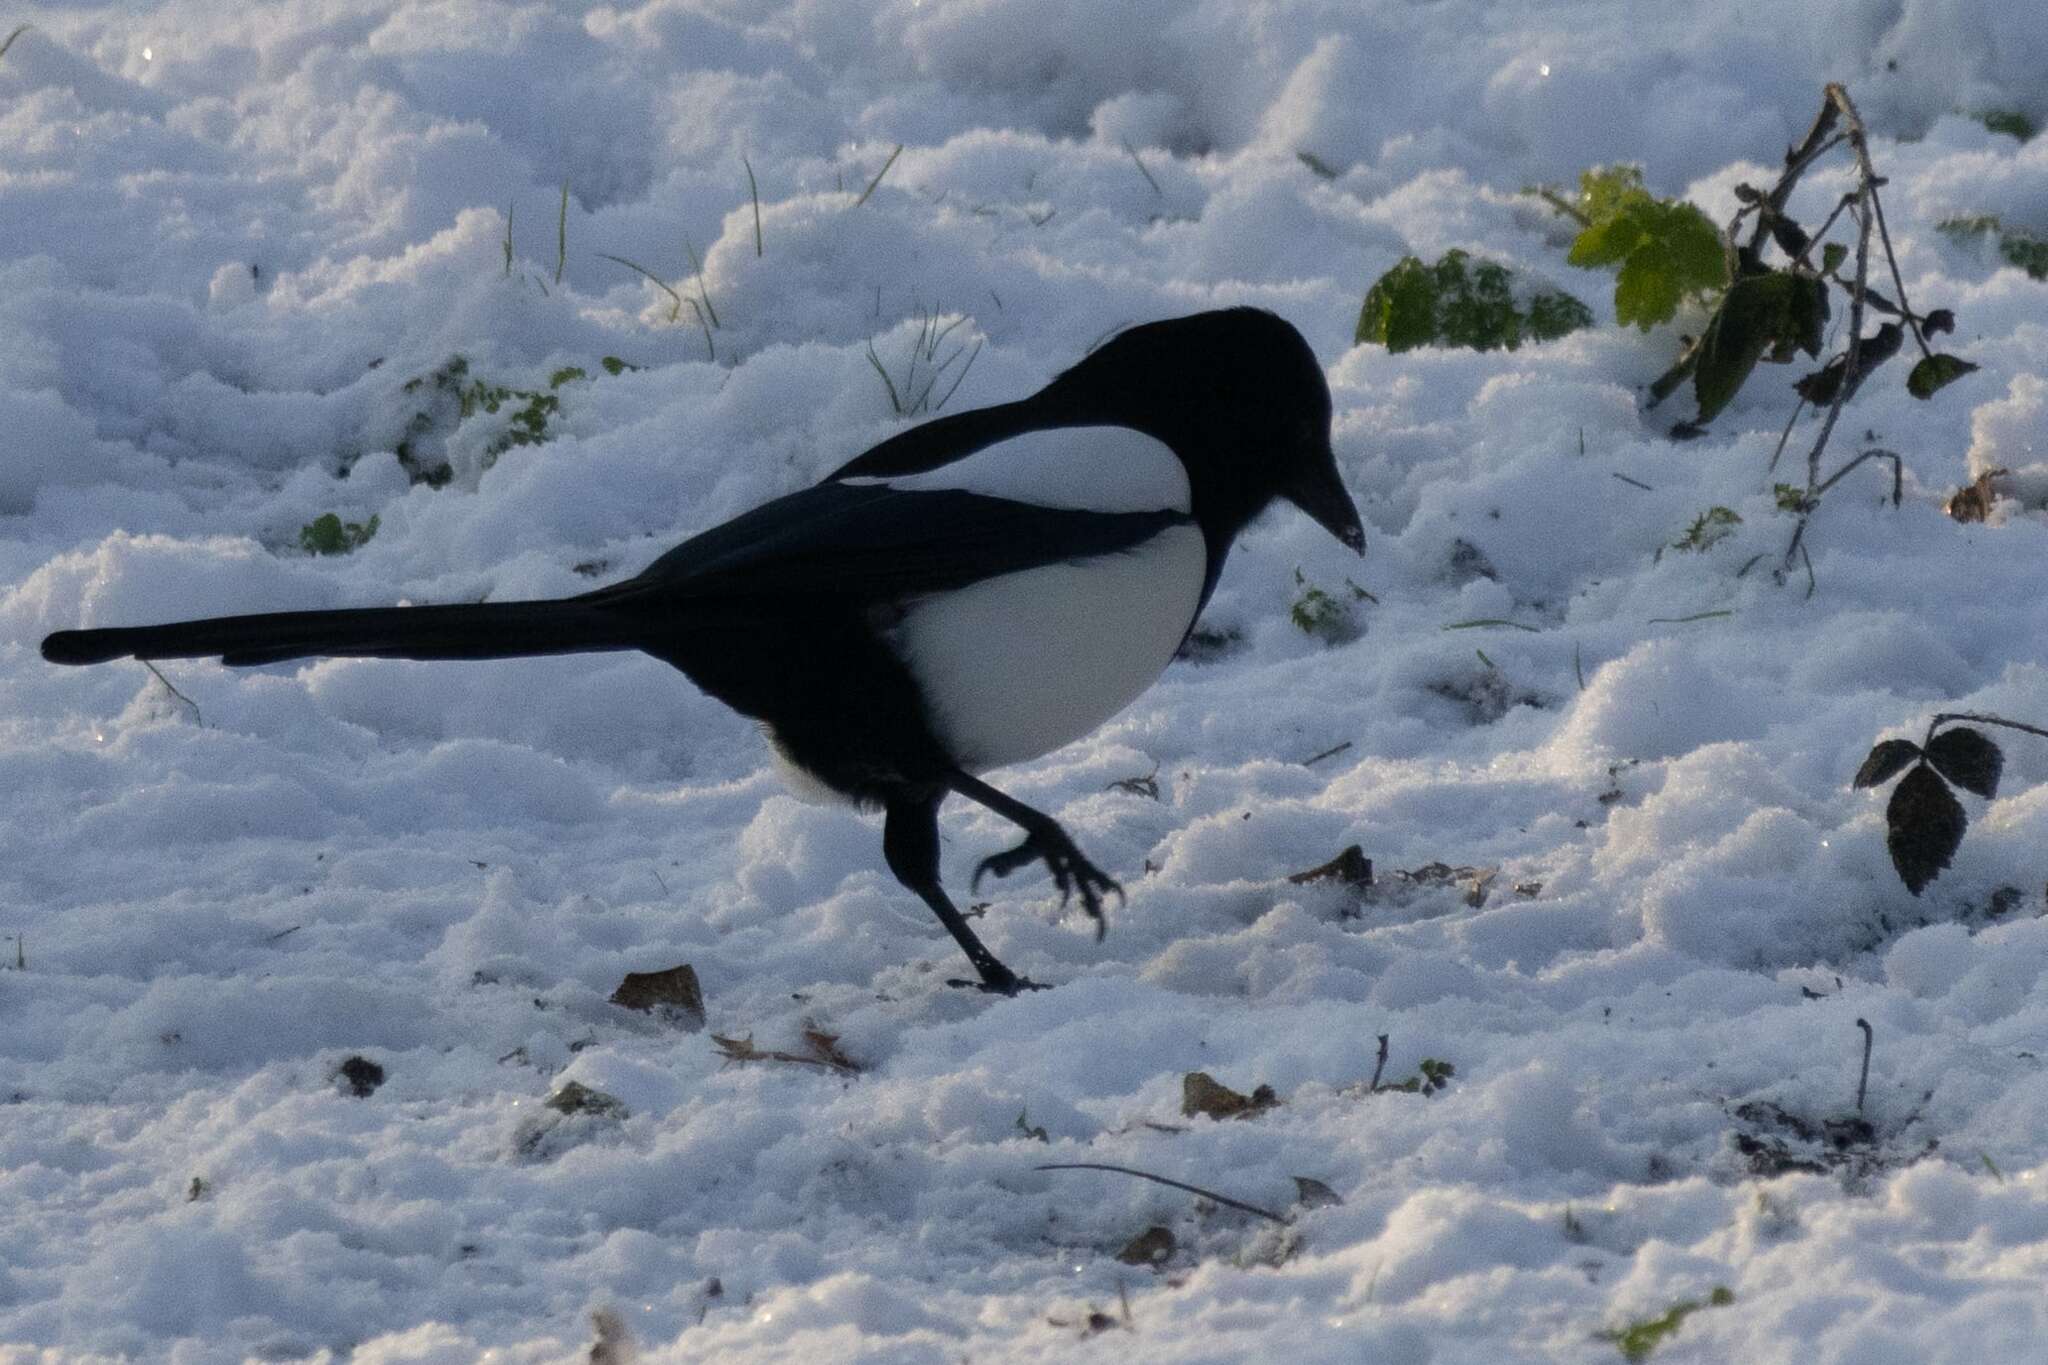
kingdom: Animalia
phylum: Chordata
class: Aves
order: Passeriformes
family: Corvidae
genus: Pica
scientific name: Pica pica
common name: Eurasian magpie
